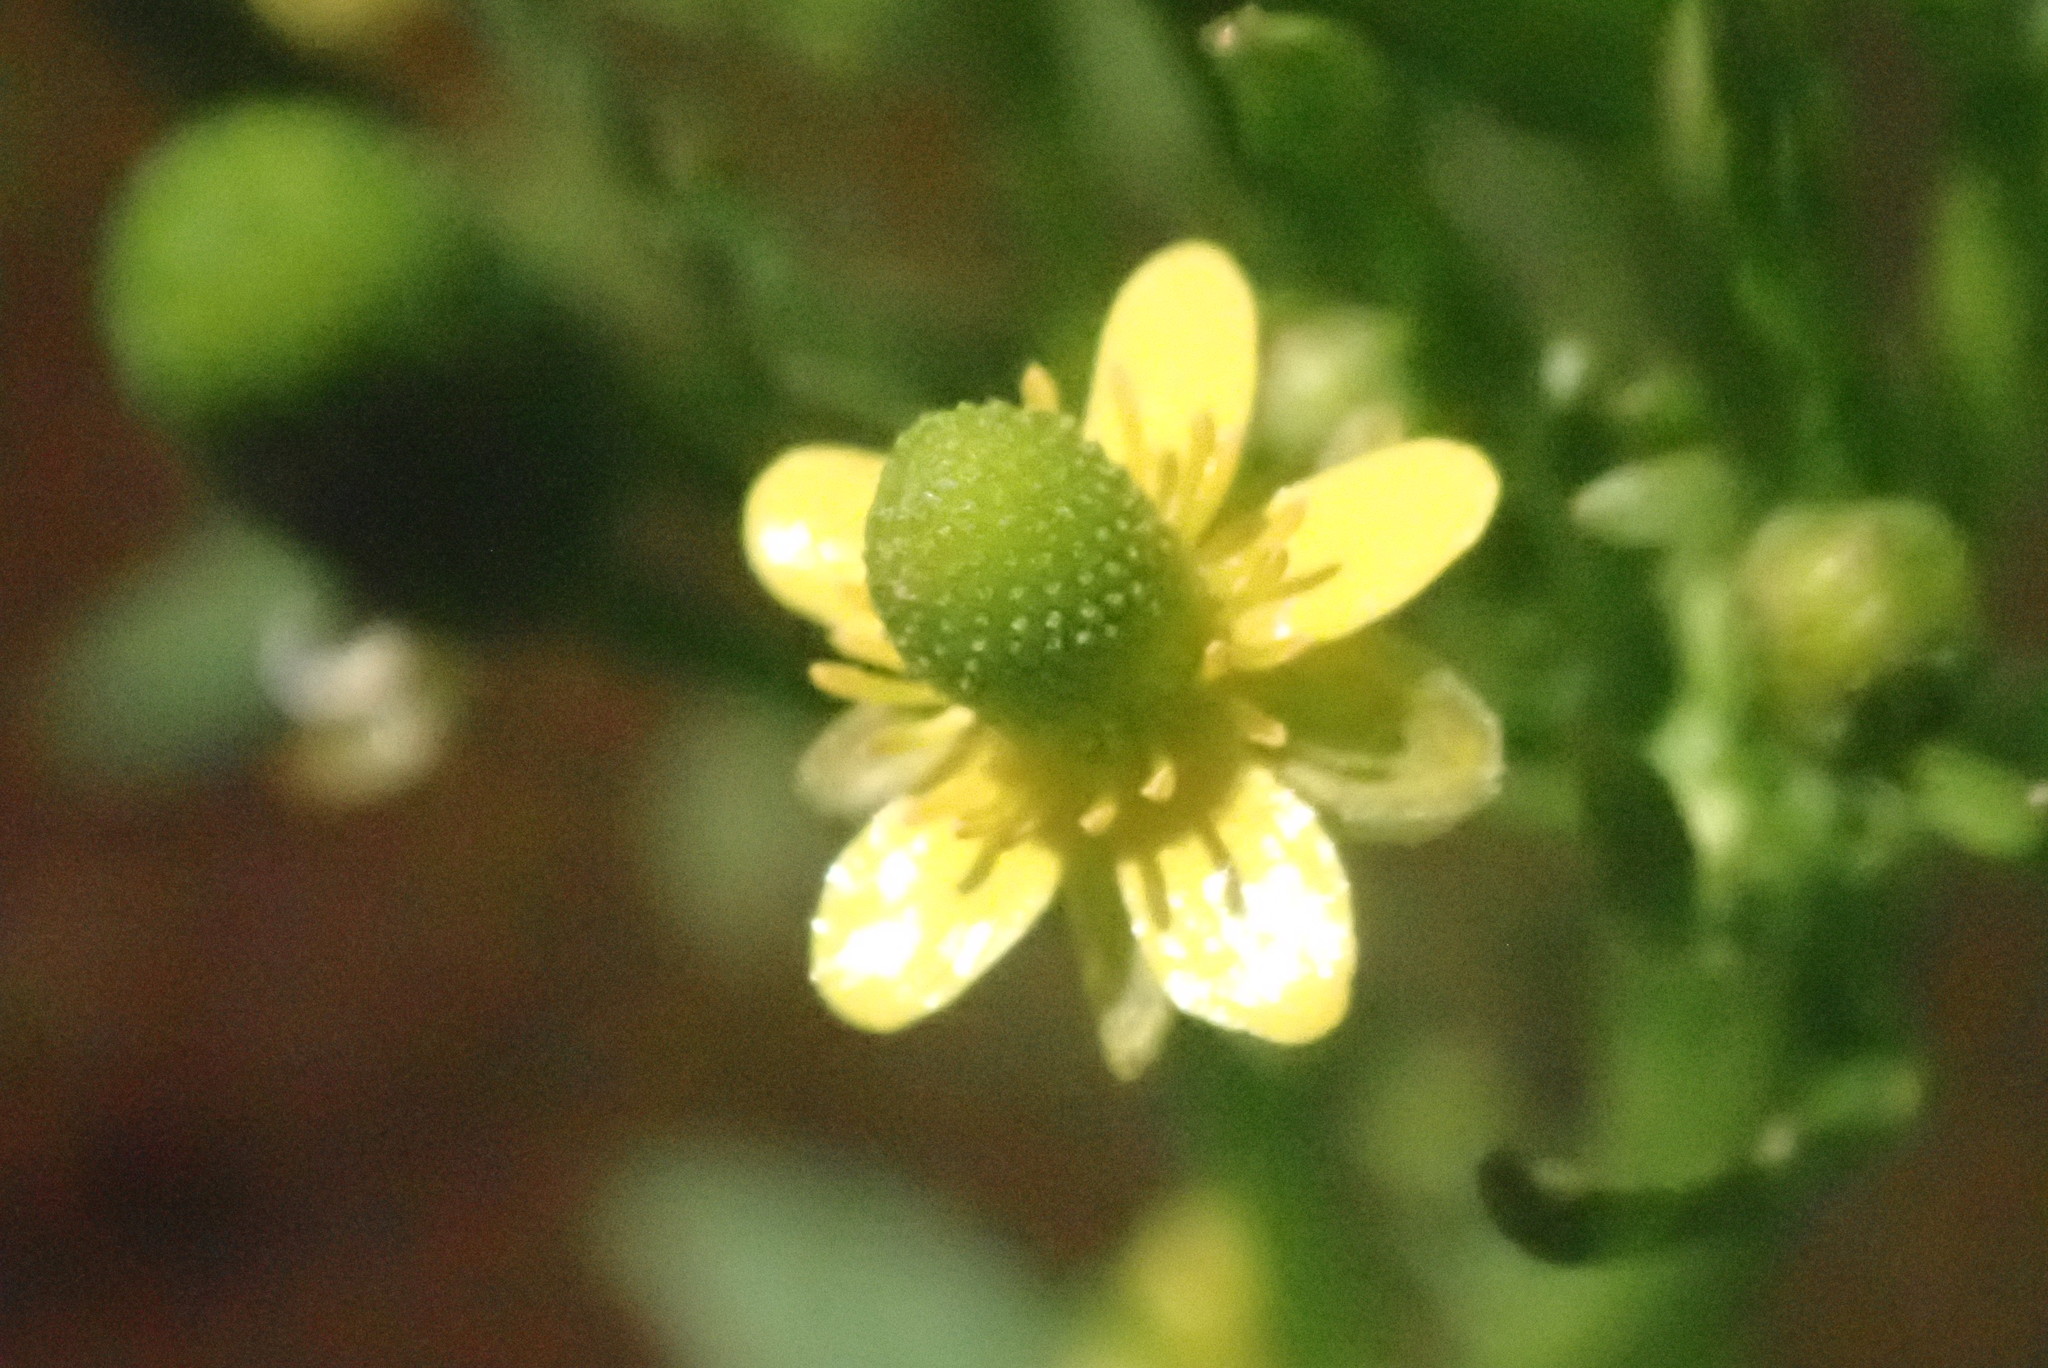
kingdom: Plantae
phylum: Tracheophyta
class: Magnoliopsida
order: Ranunculales
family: Ranunculaceae
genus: Ranunculus
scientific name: Ranunculus sceleratus
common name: Celery-leaved buttercup
